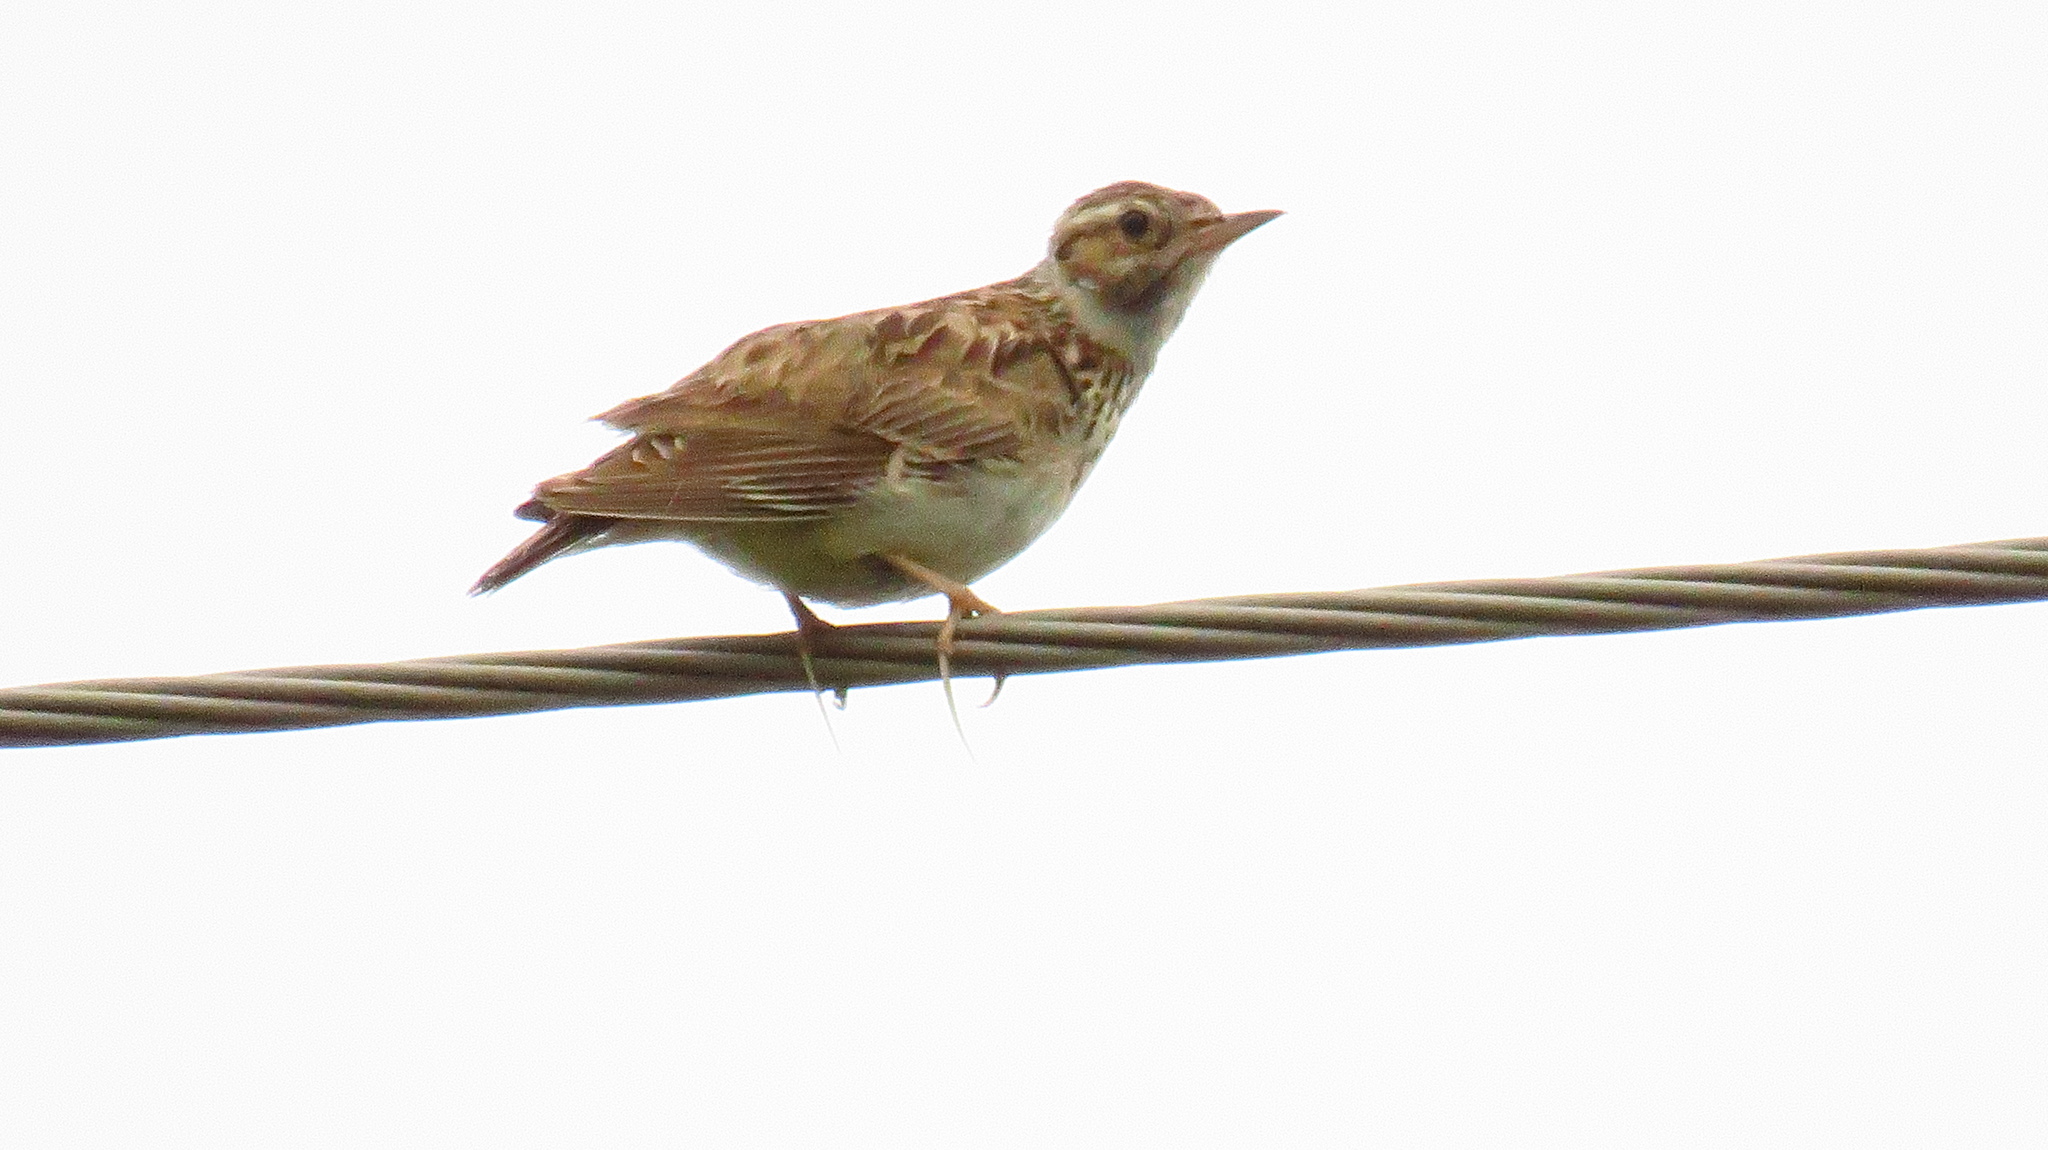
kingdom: Animalia
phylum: Chordata
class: Aves
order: Passeriformes
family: Alaudidae
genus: Lullula
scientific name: Lullula arborea
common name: Woodlark
